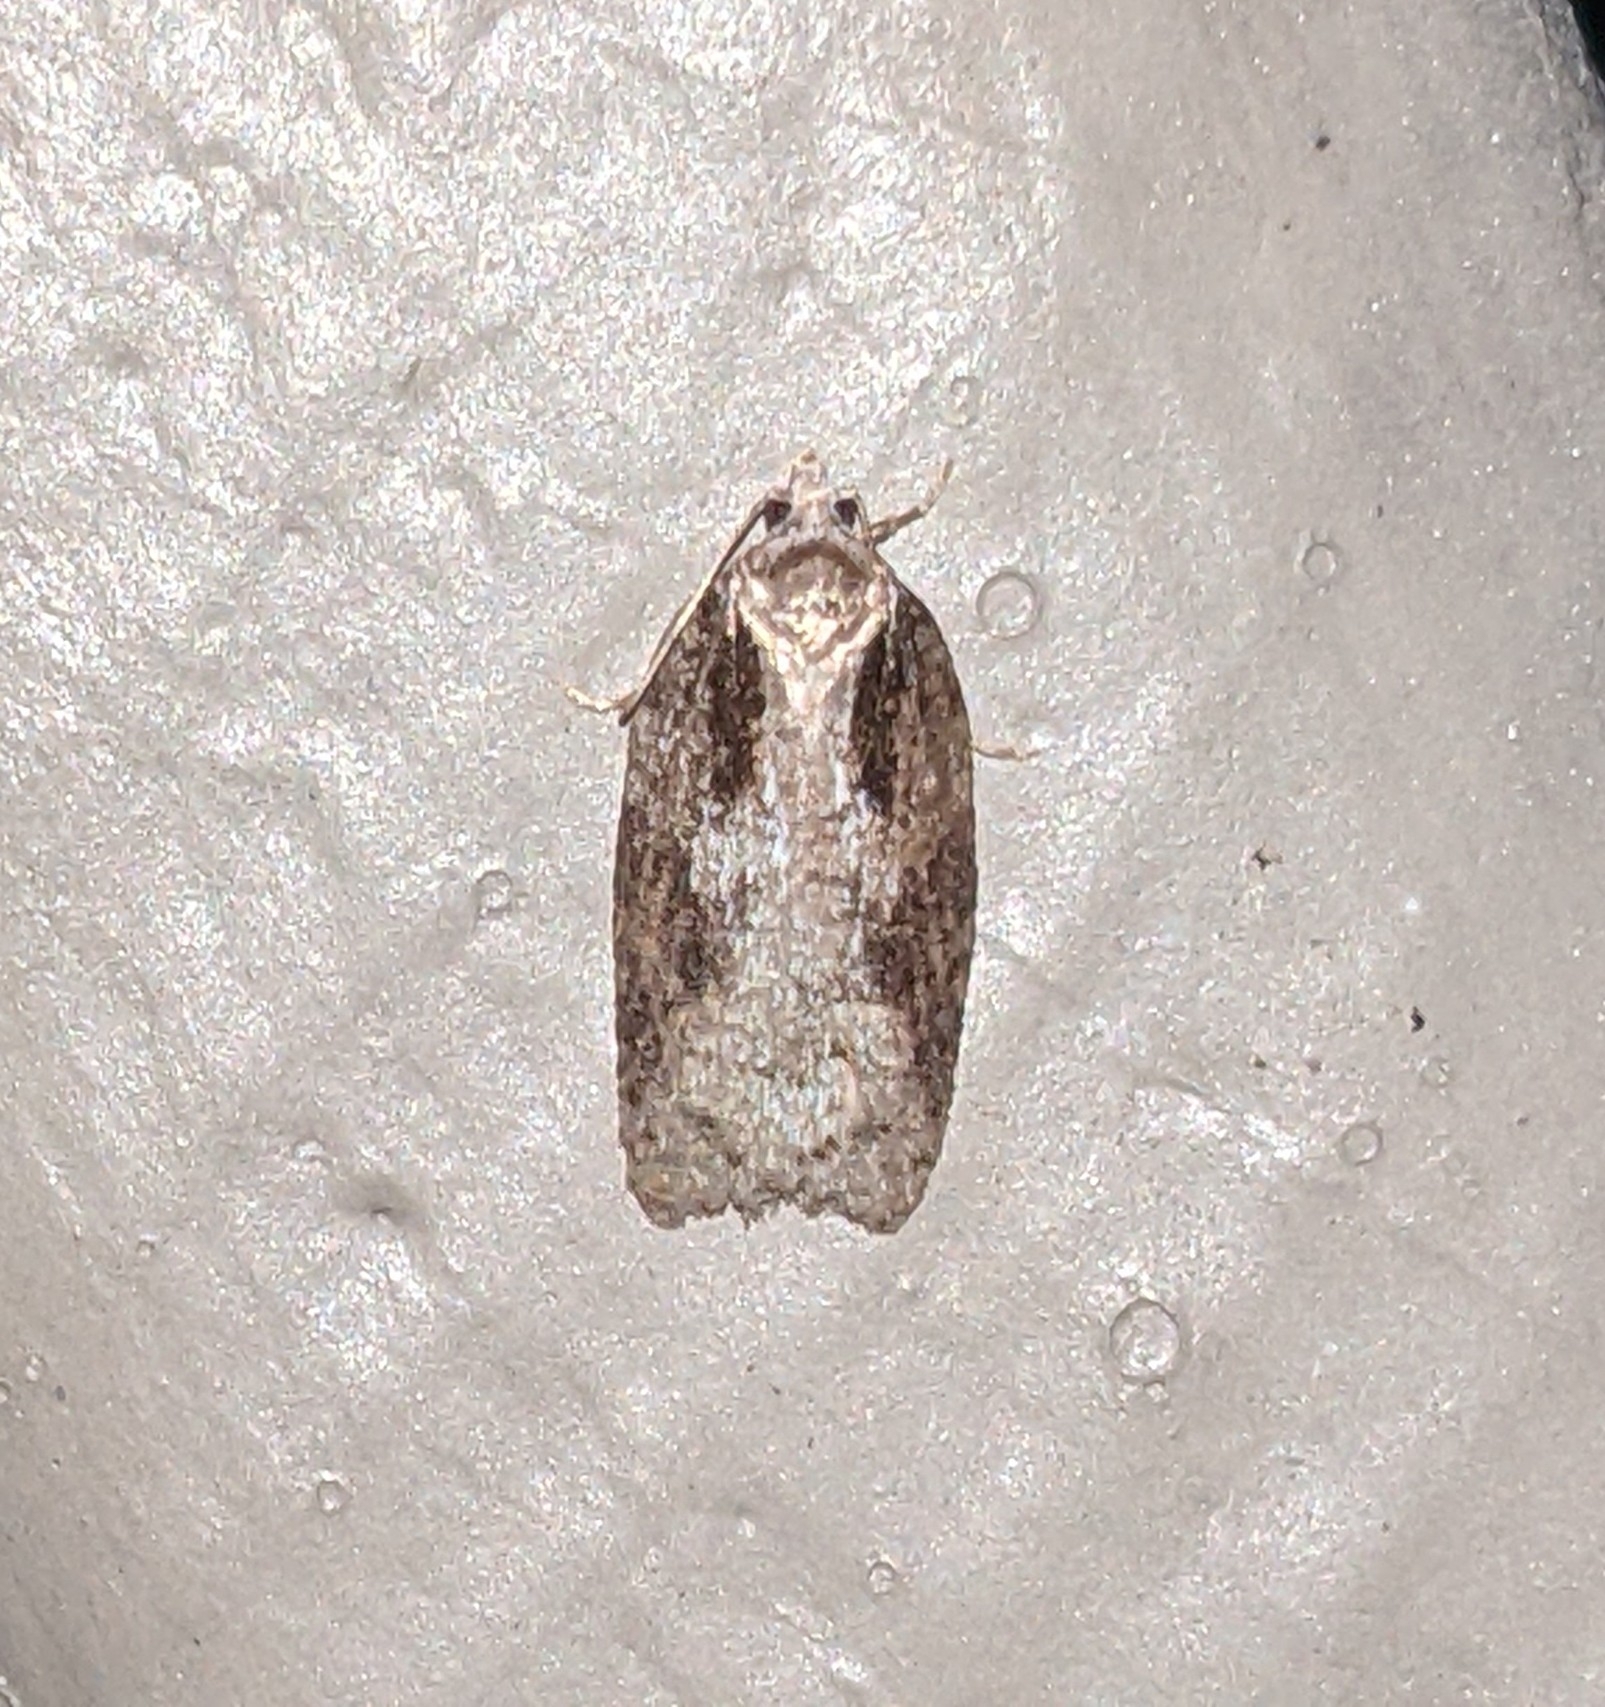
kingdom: Animalia
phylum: Arthropoda
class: Insecta
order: Lepidoptera
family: Tortricidae
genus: Acleris
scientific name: Acleris
